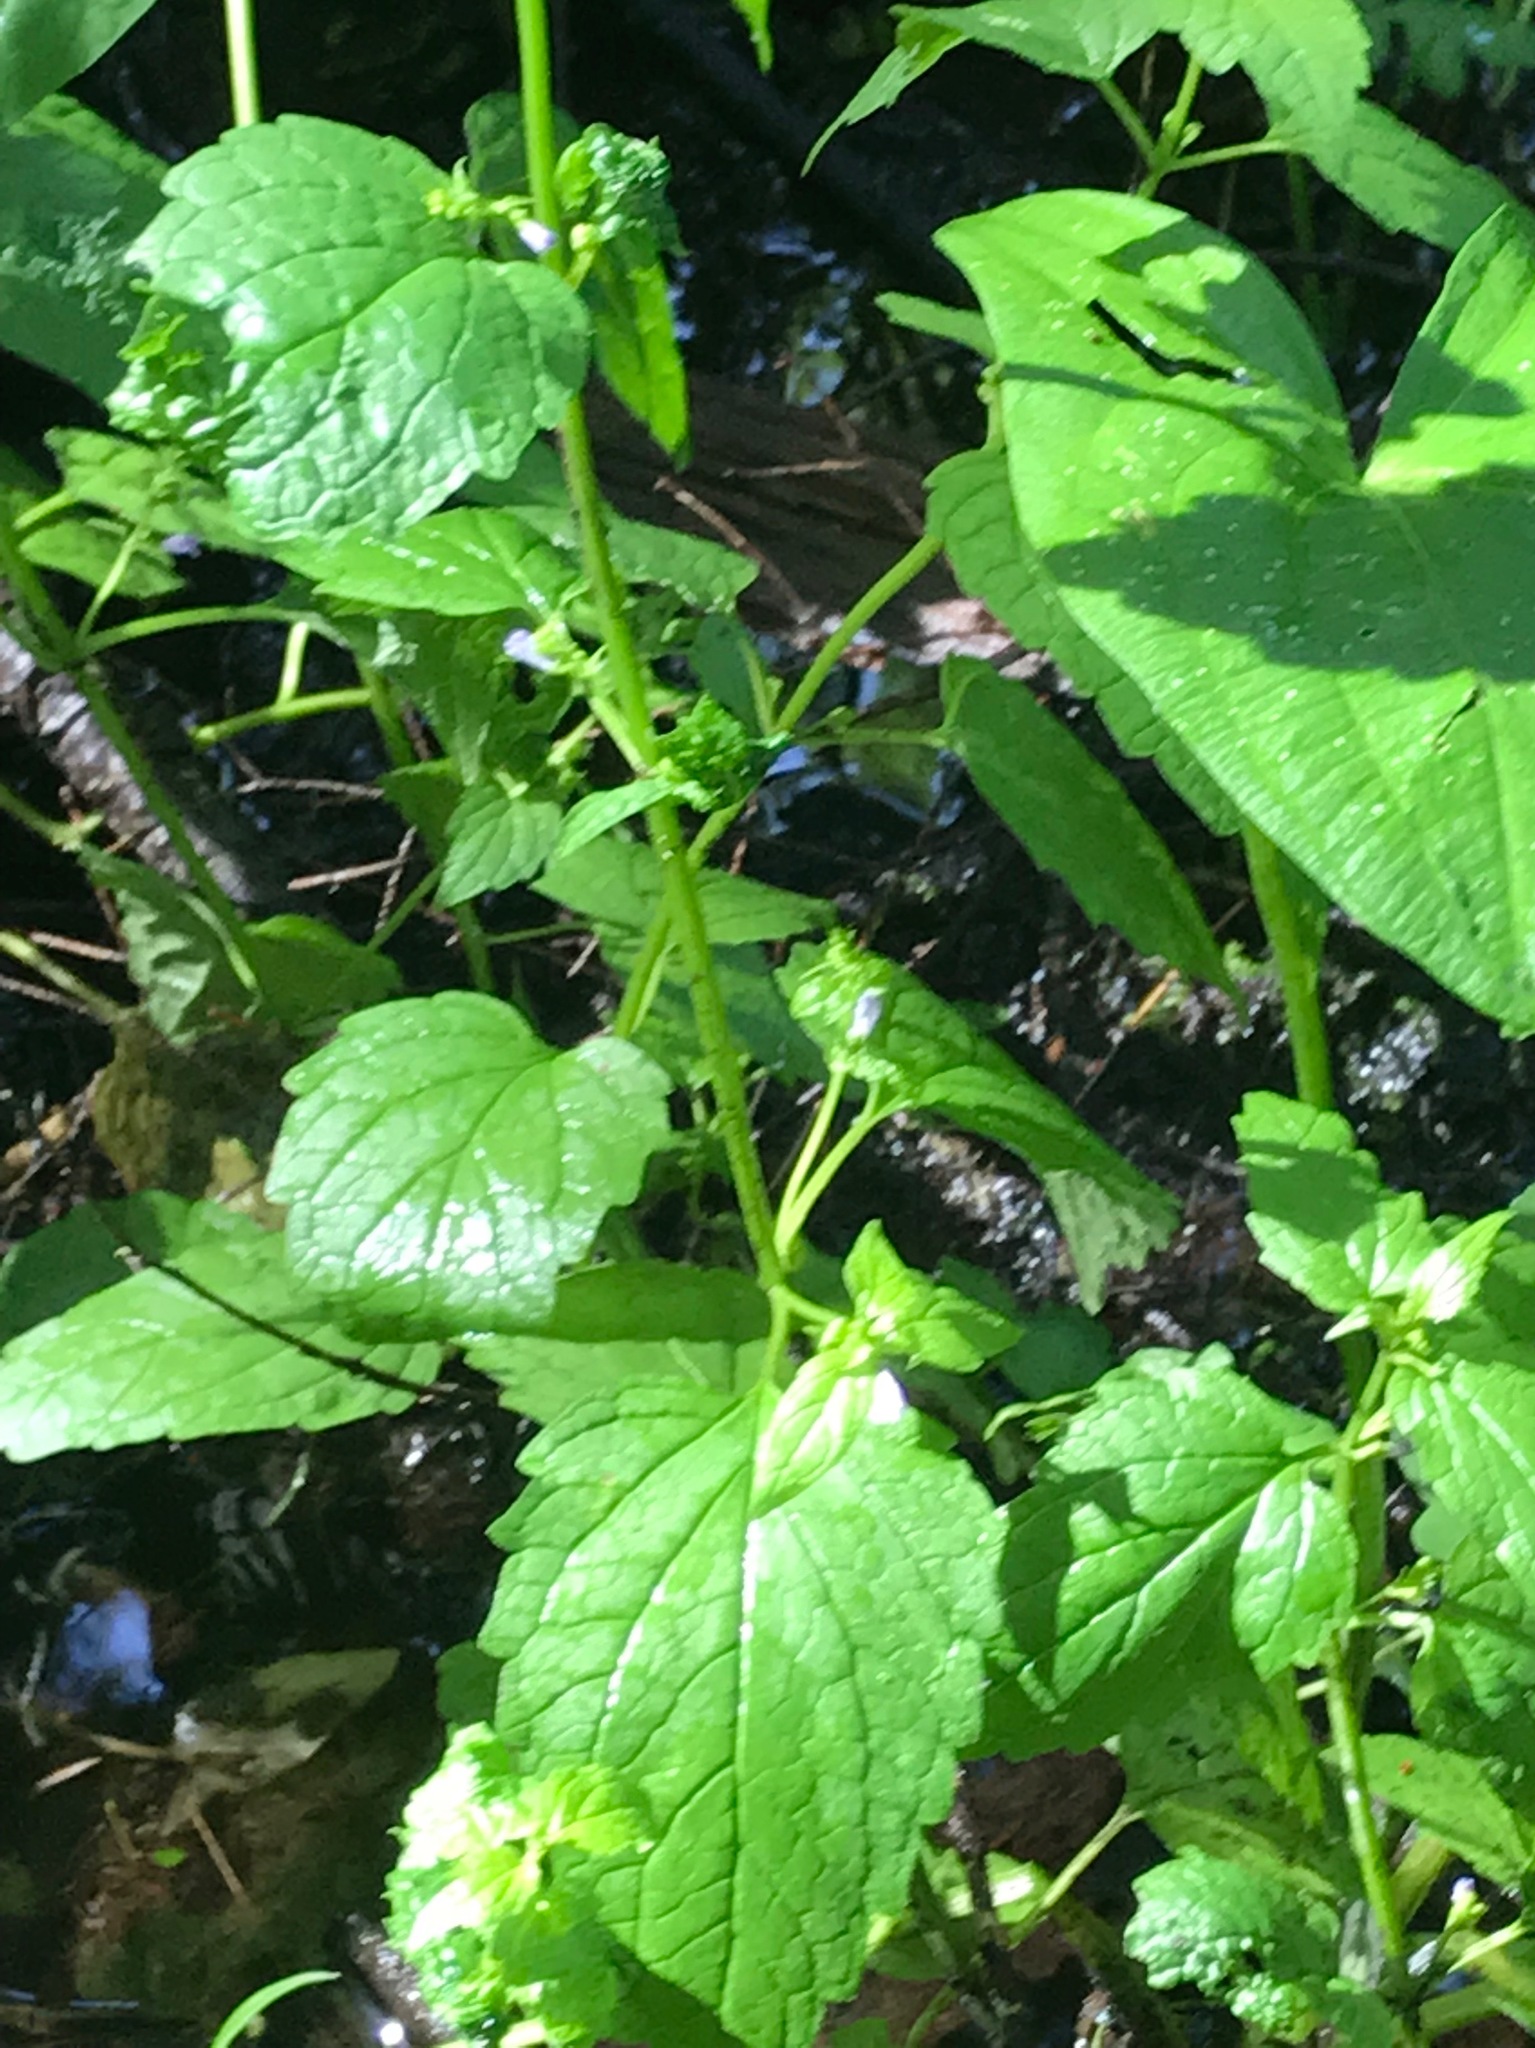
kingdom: Plantae
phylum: Tracheophyta
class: Magnoliopsida
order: Lamiales
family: Lamiaceae
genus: Scutellaria
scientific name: Scutellaria lateriflora
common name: Blue skullcap
